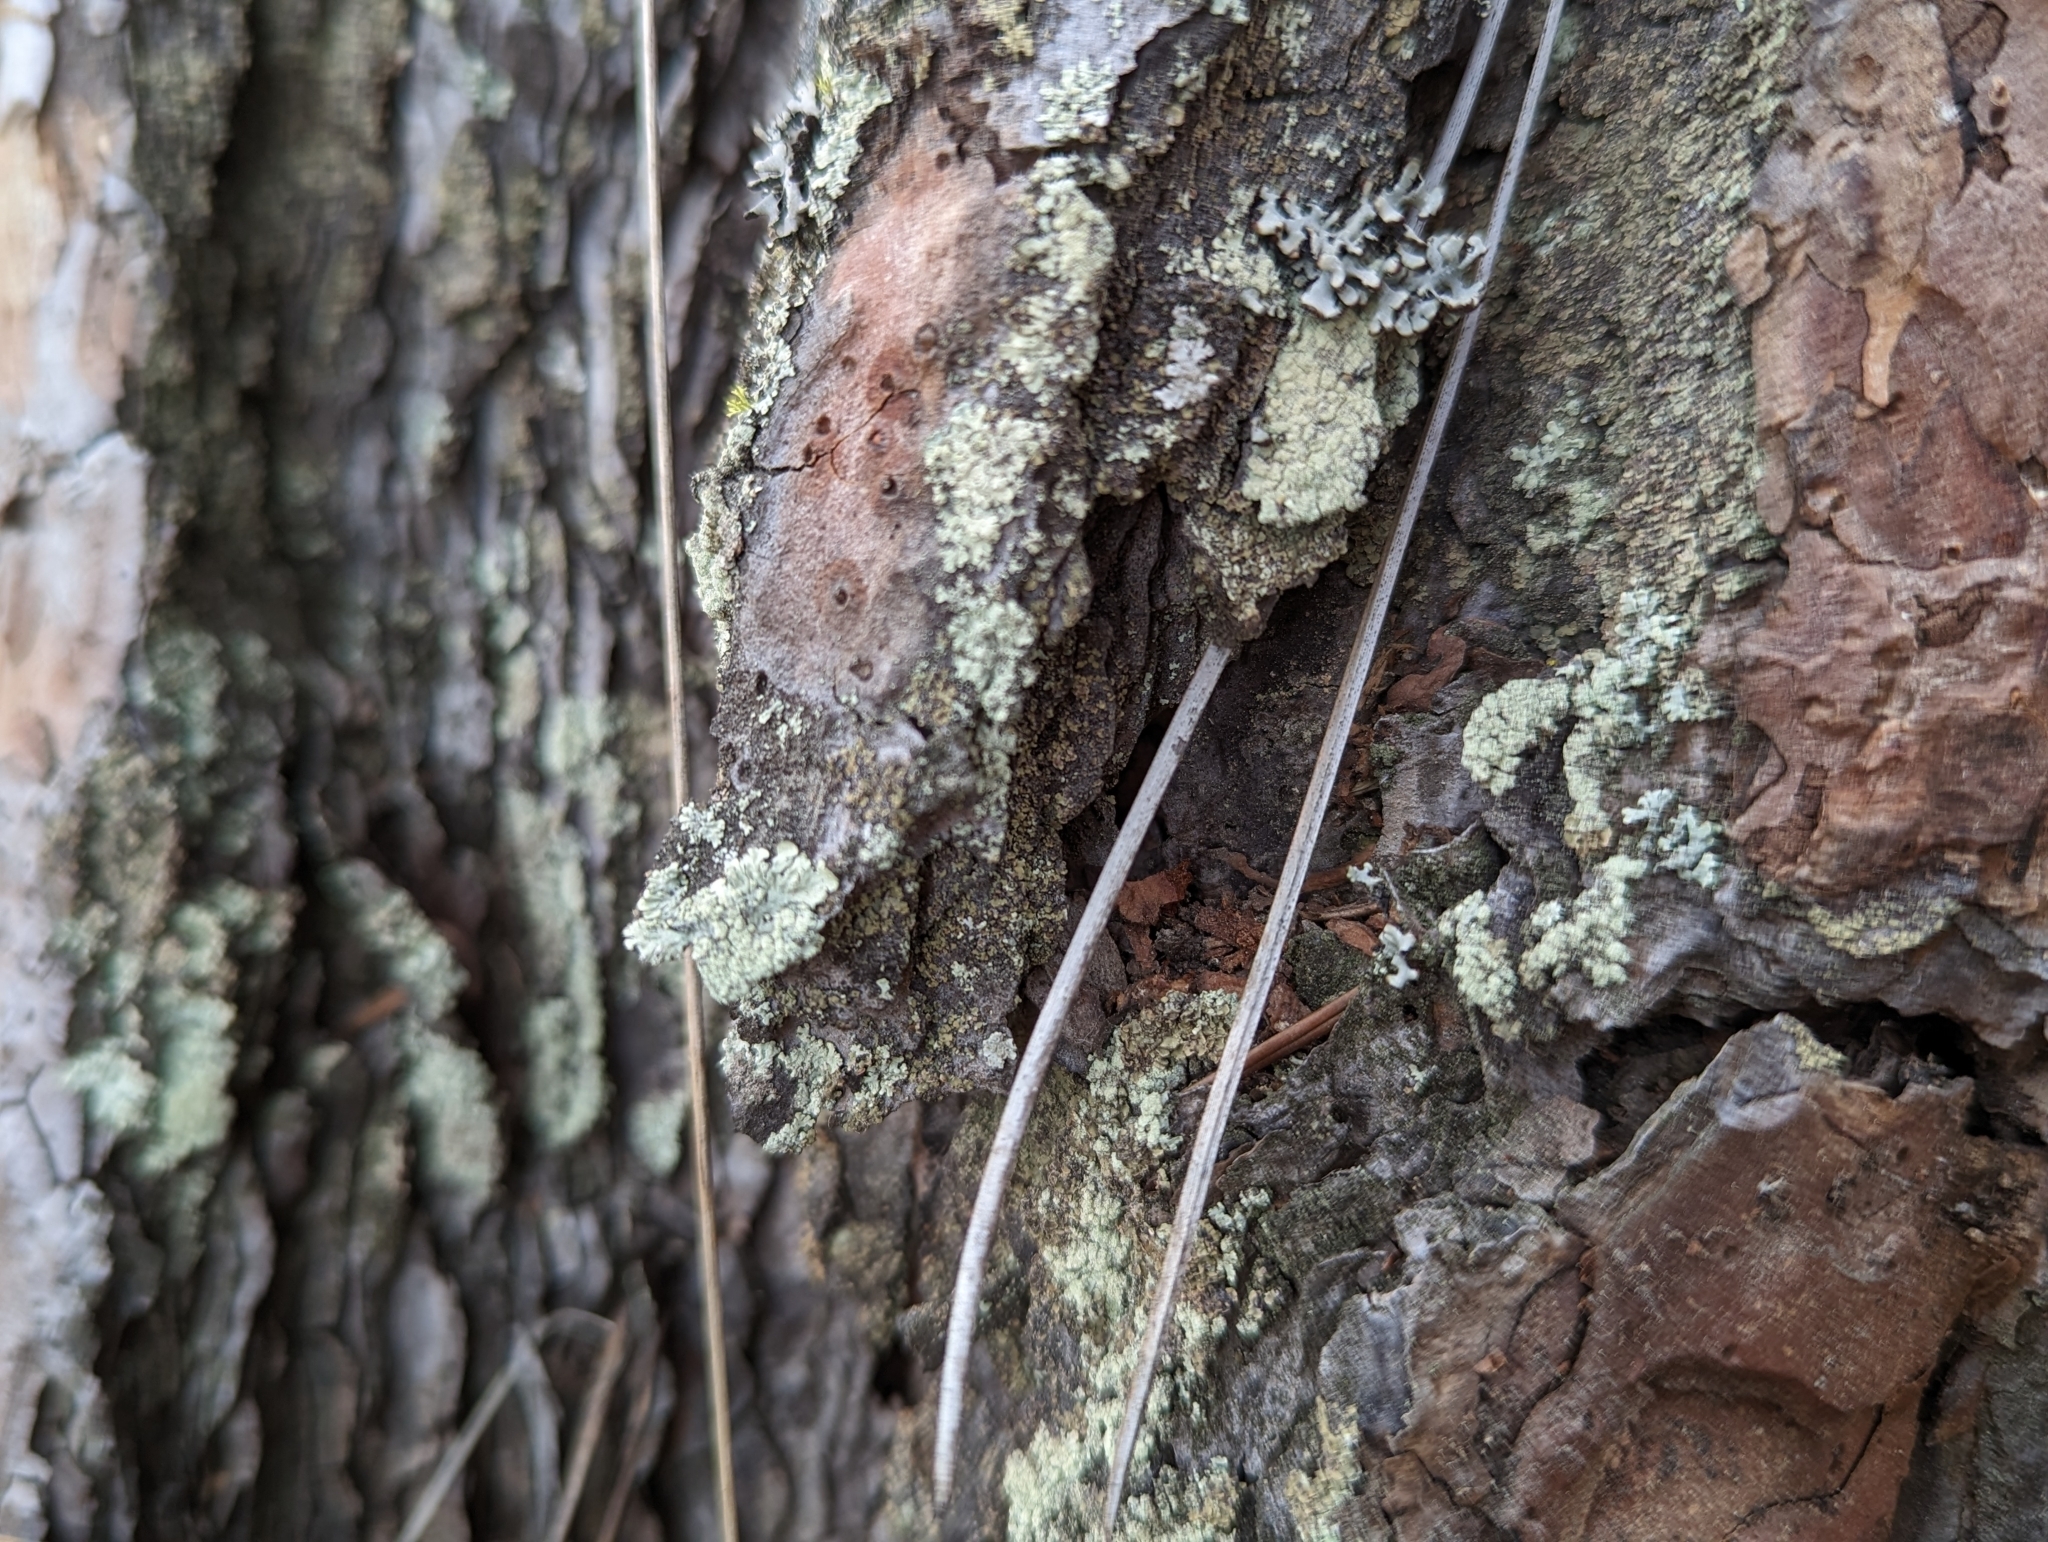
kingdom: Fungi
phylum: Ascomycota
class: Lecanoromycetes
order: Lecanorales
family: Parmeliaceae
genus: Parmeliopsis
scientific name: Parmeliopsis ambigua
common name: Green starburst lichen
